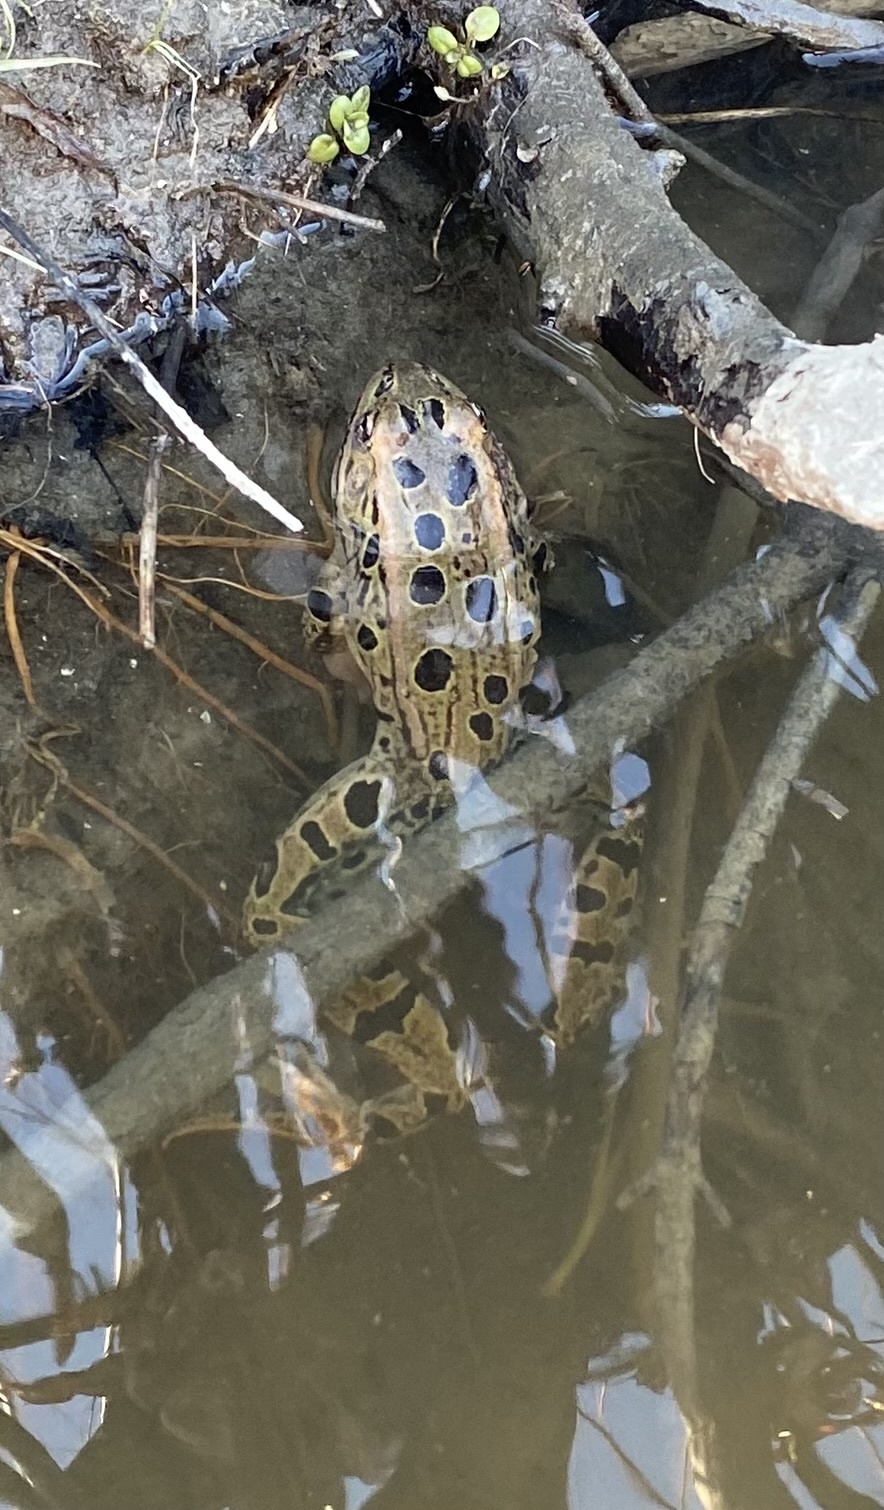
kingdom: Animalia
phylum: Chordata
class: Amphibia
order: Anura
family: Ranidae
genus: Lithobates
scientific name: Lithobates pipiens
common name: Northern leopard frog
